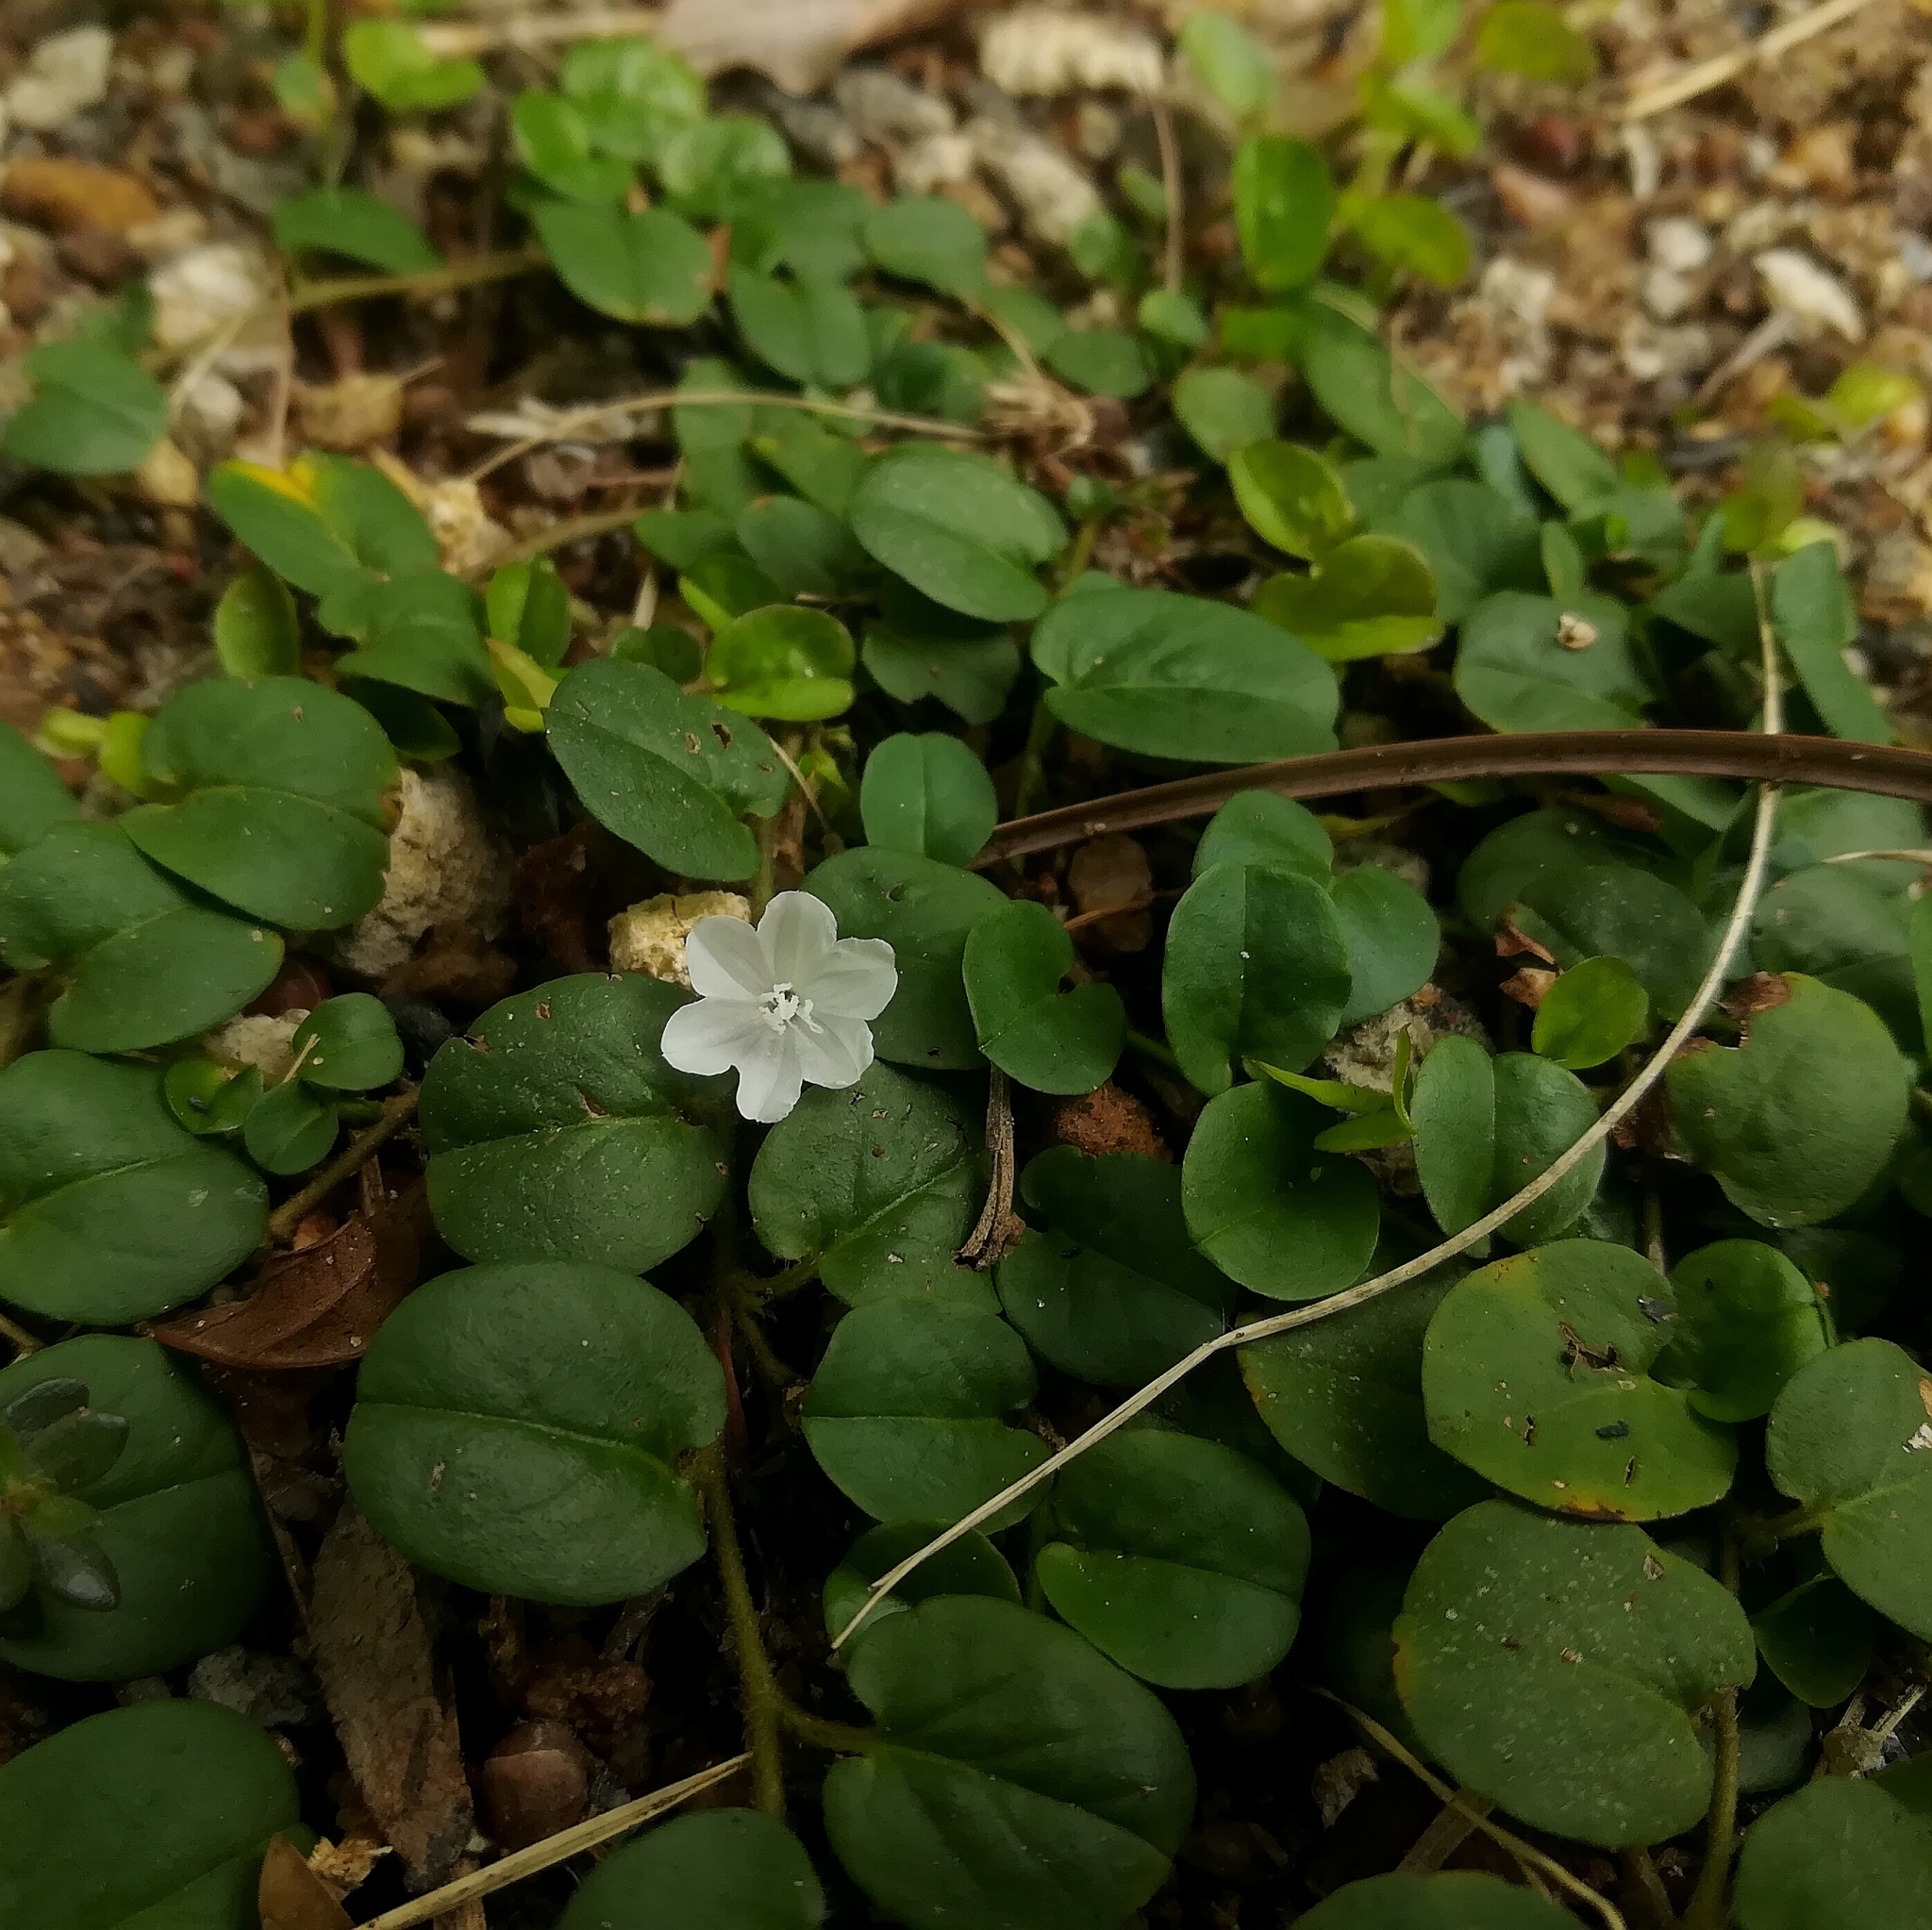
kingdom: Plantae
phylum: Tracheophyta
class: Magnoliopsida
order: Solanales
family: Convolvulaceae
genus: Evolvulus
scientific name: Evolvulus nummularius
